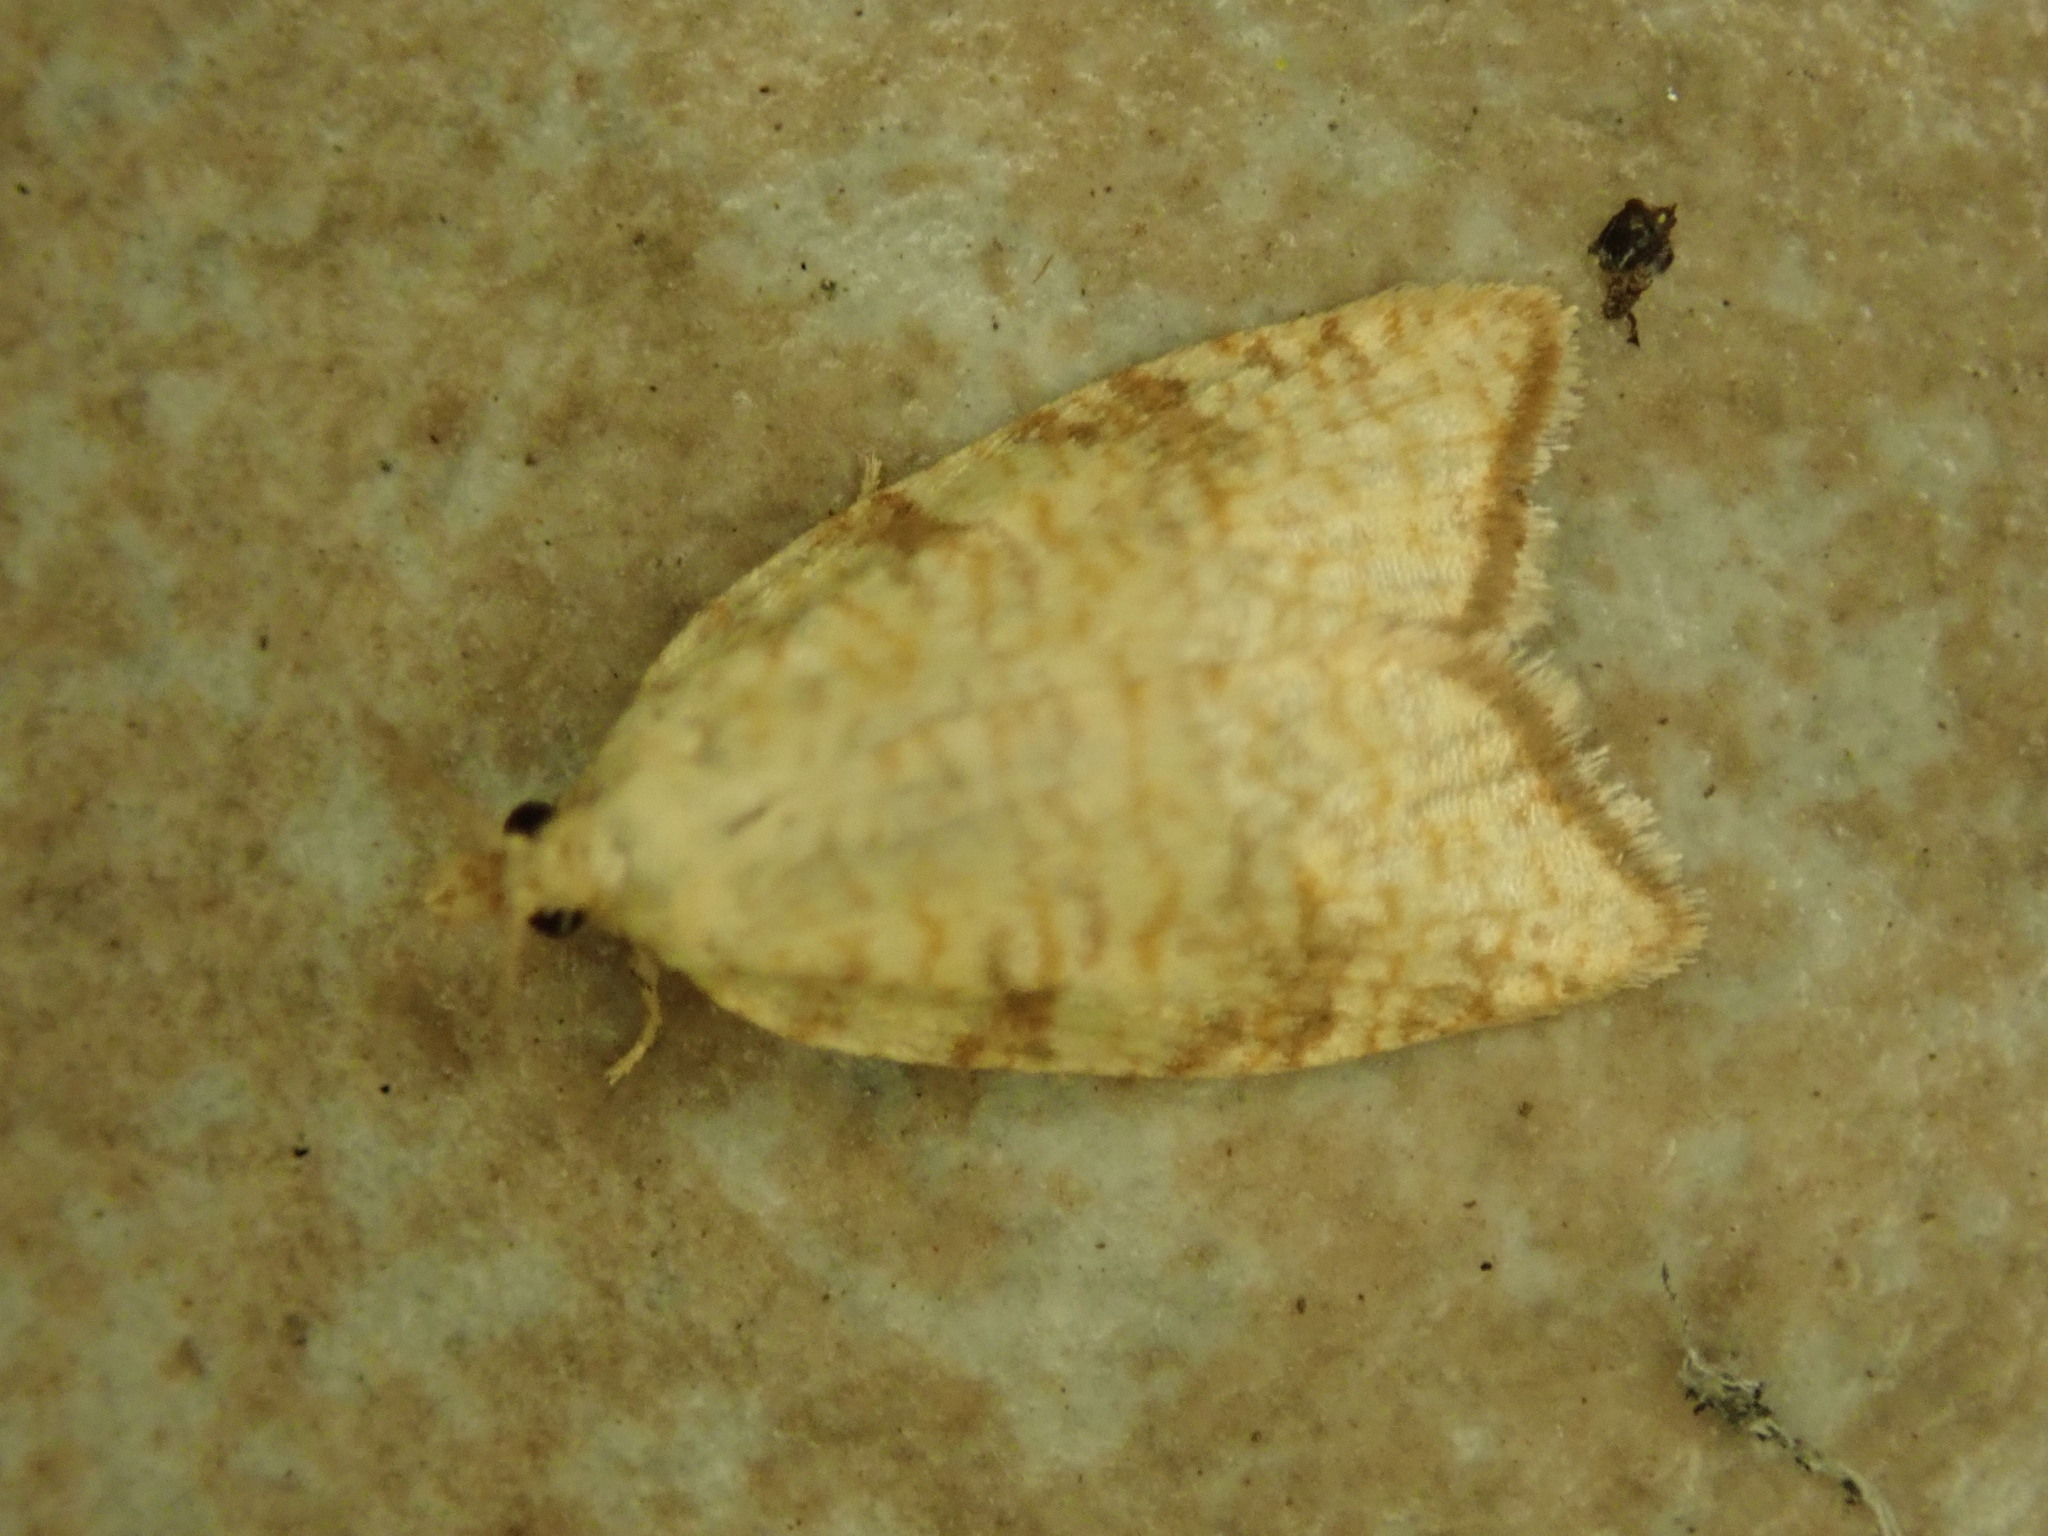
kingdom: Animalia
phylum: Arthropoda
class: Insecta
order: Lepidoptera
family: Tortricidae
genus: Aleimma
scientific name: Aleimma loeflingiana
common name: Yellow oak button
